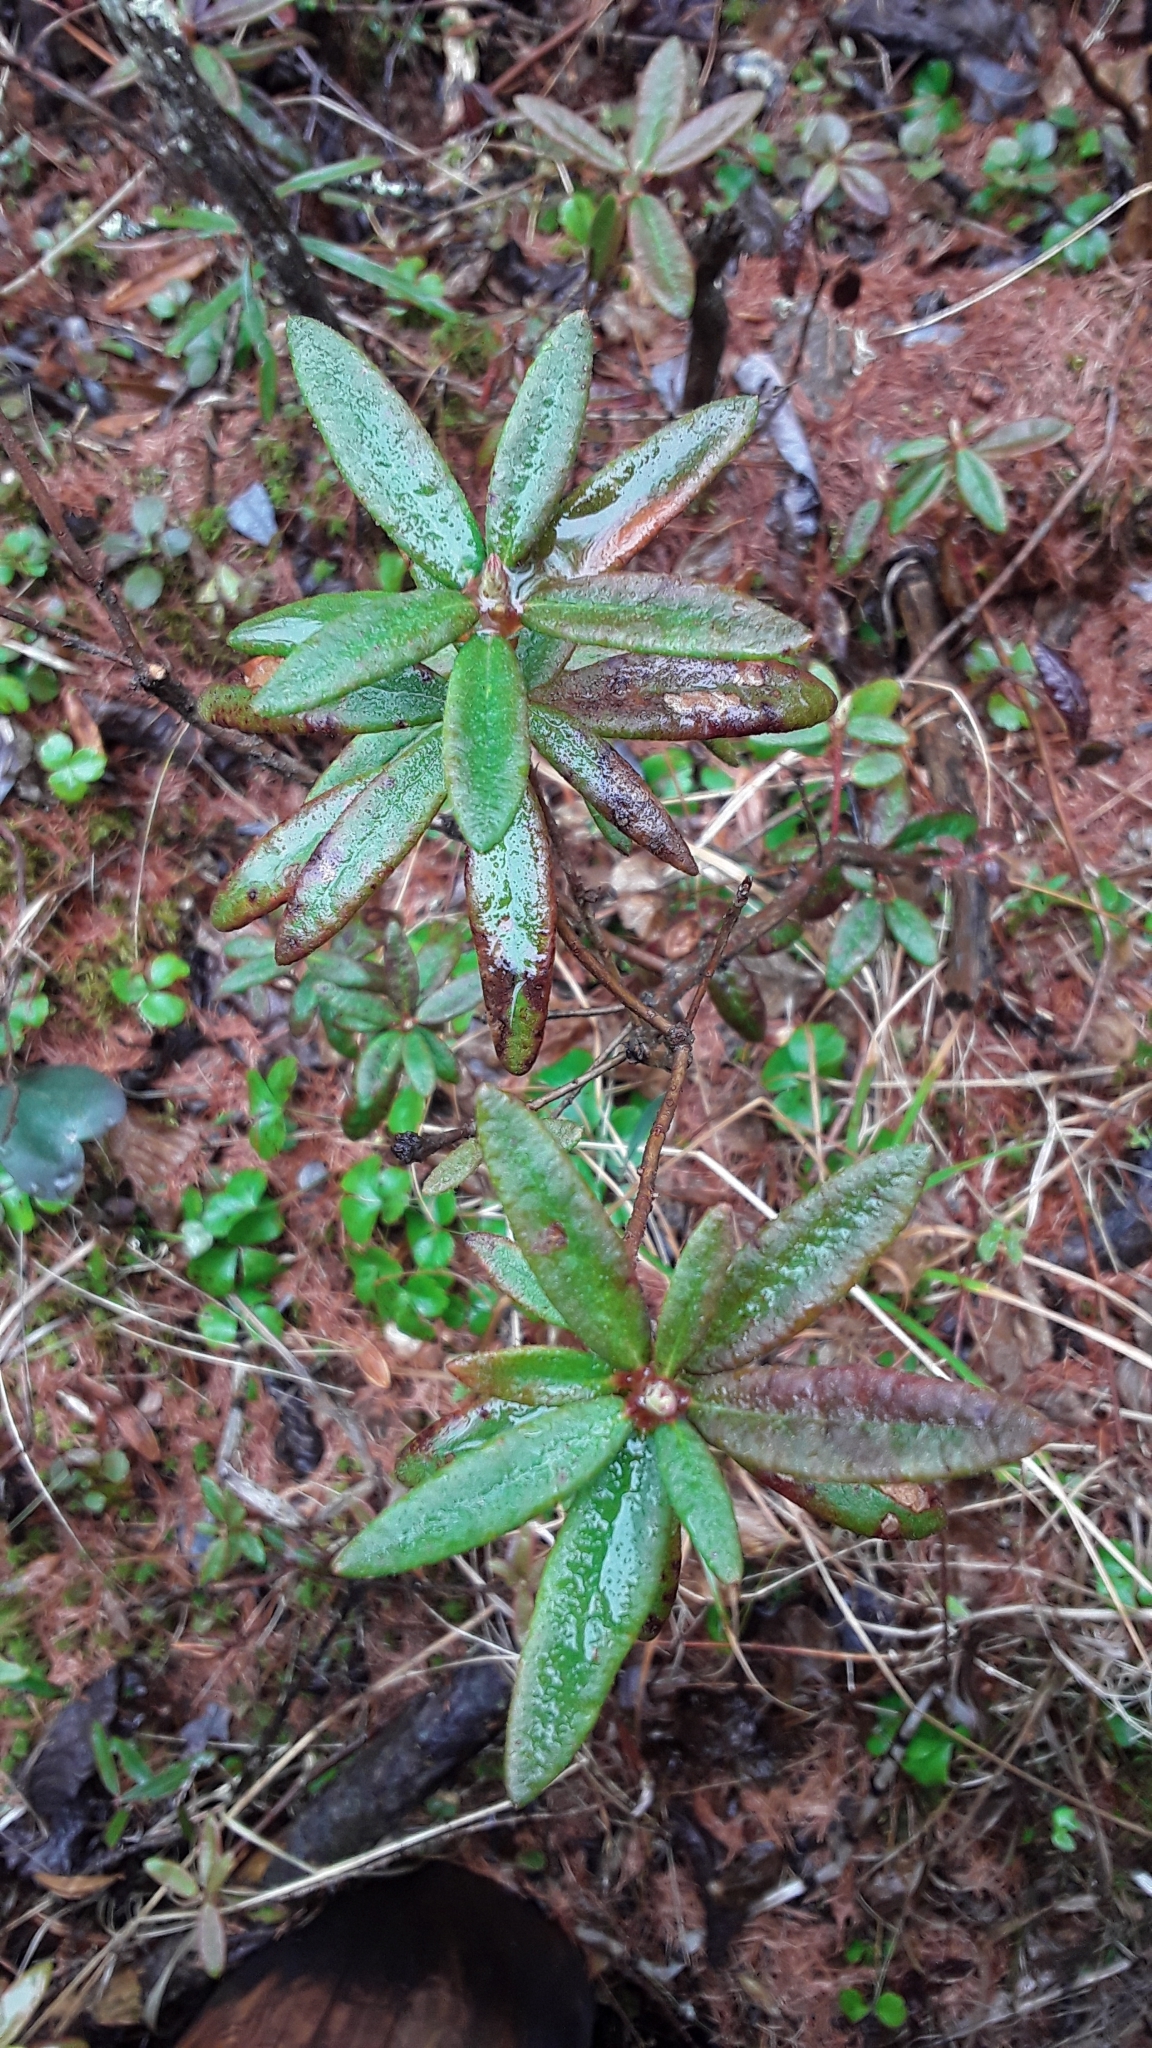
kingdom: Plantae
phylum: Tracheophyta
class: Magnoliopsida
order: Ericales
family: Ericaceae
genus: Rhododendron
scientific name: Rhododendron groenlandicum
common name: Bog labrador tea
